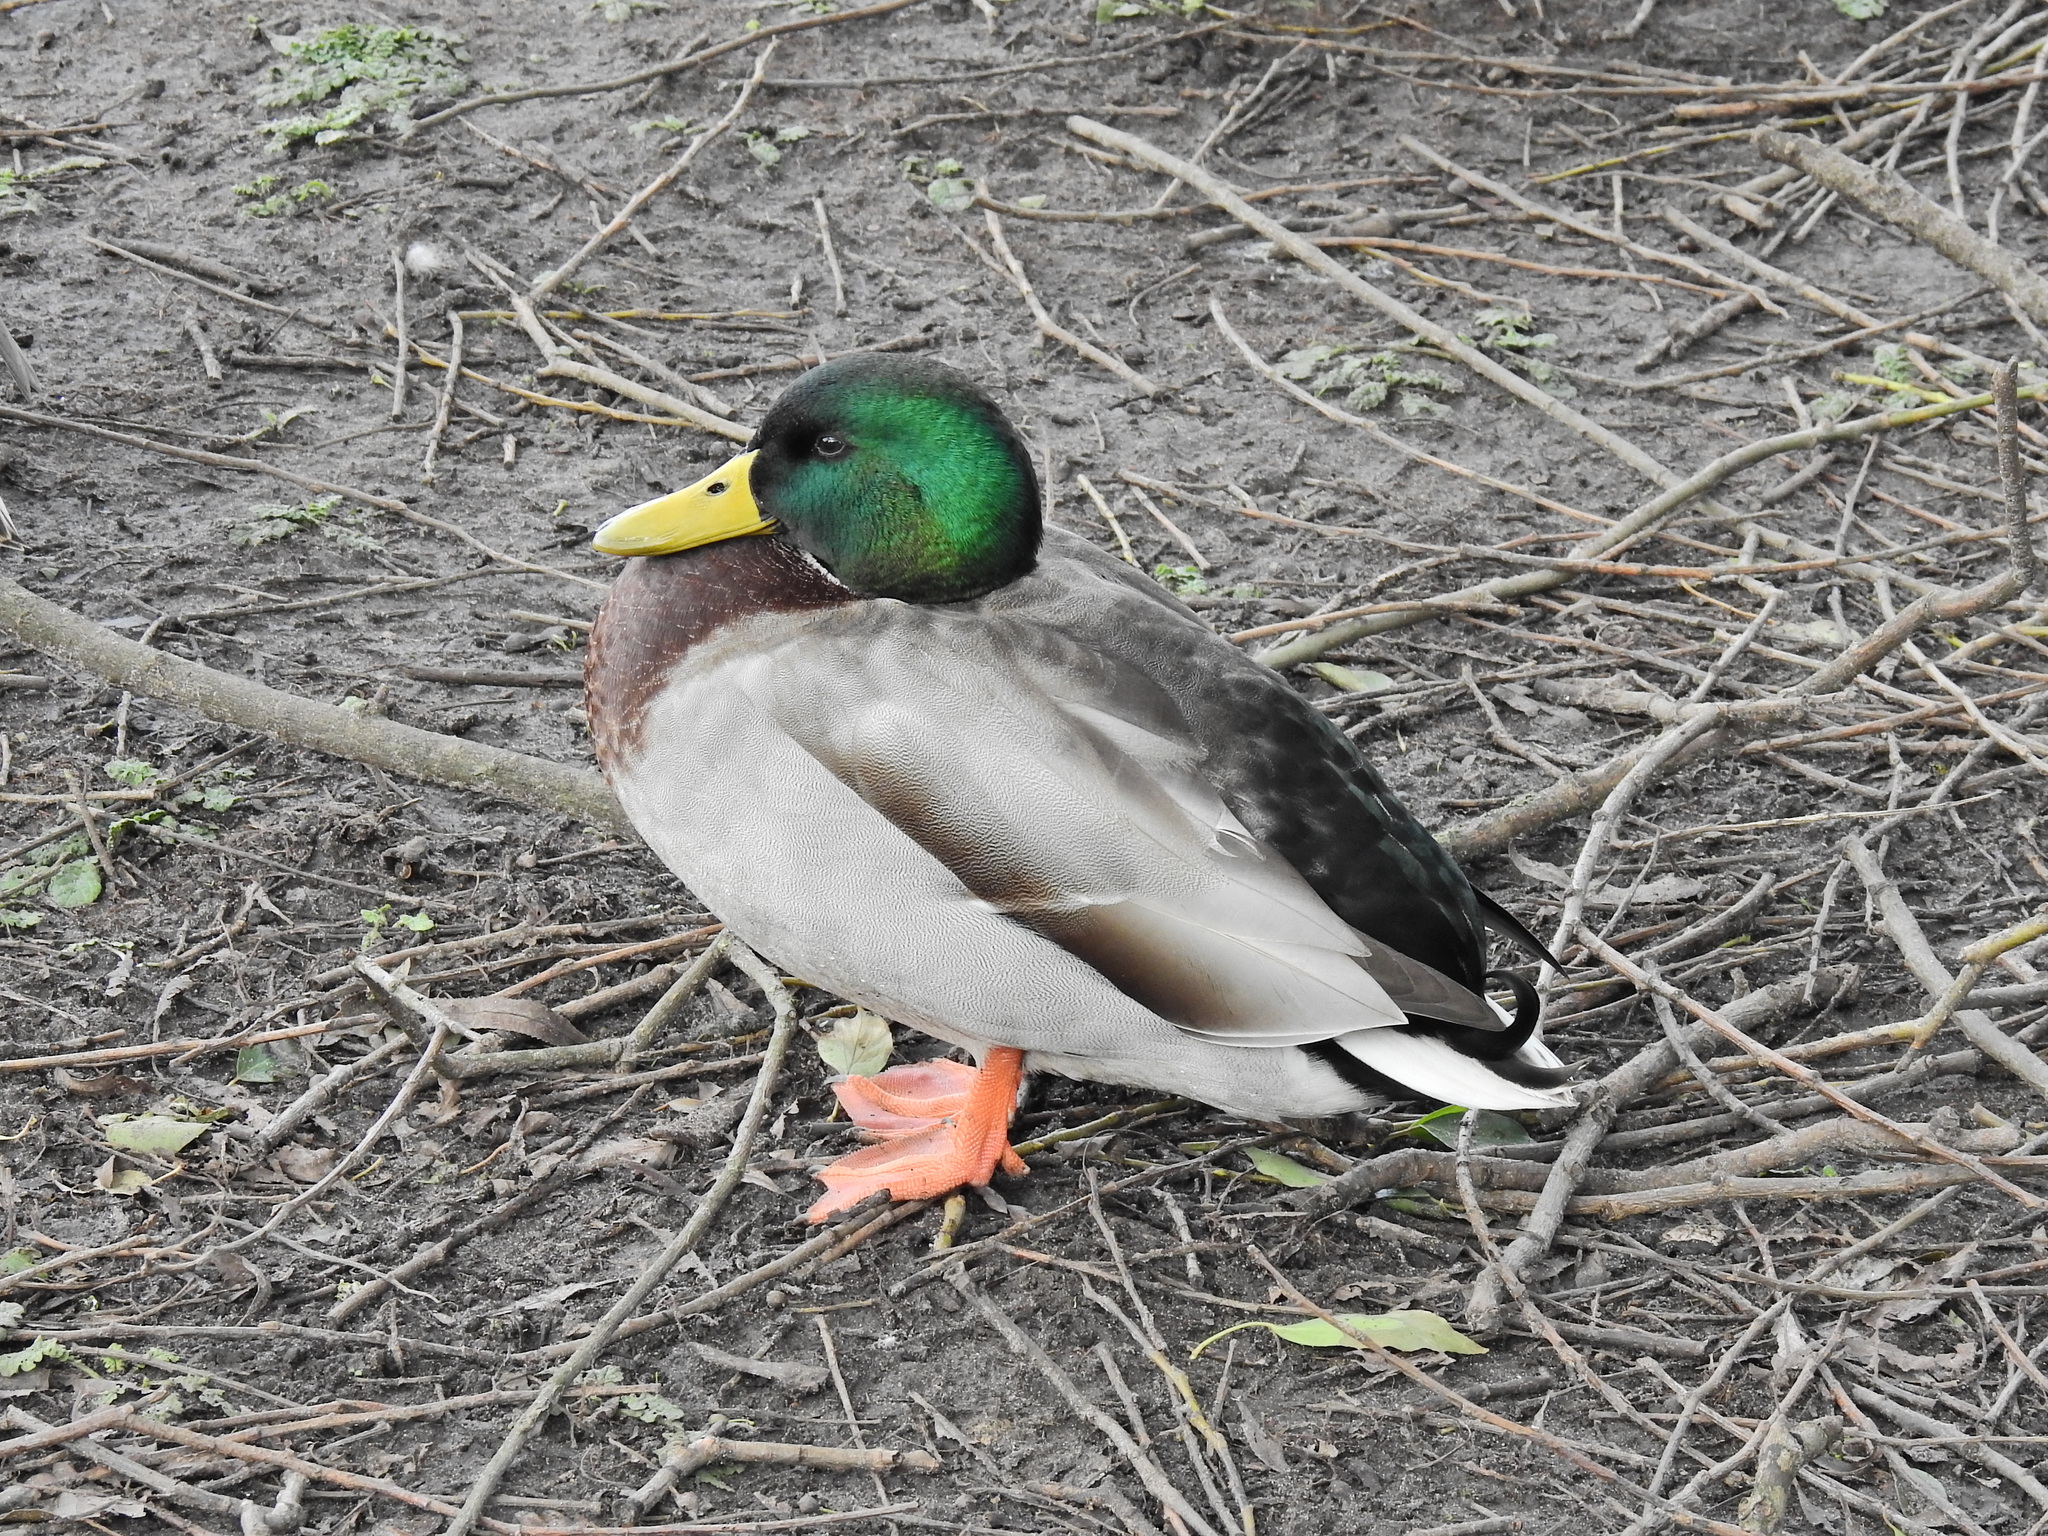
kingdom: Animalia
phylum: Chordata
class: Aves
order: Anseriformes
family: Anatidae
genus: Anas
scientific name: Anas platyrhynchos
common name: Mallard
